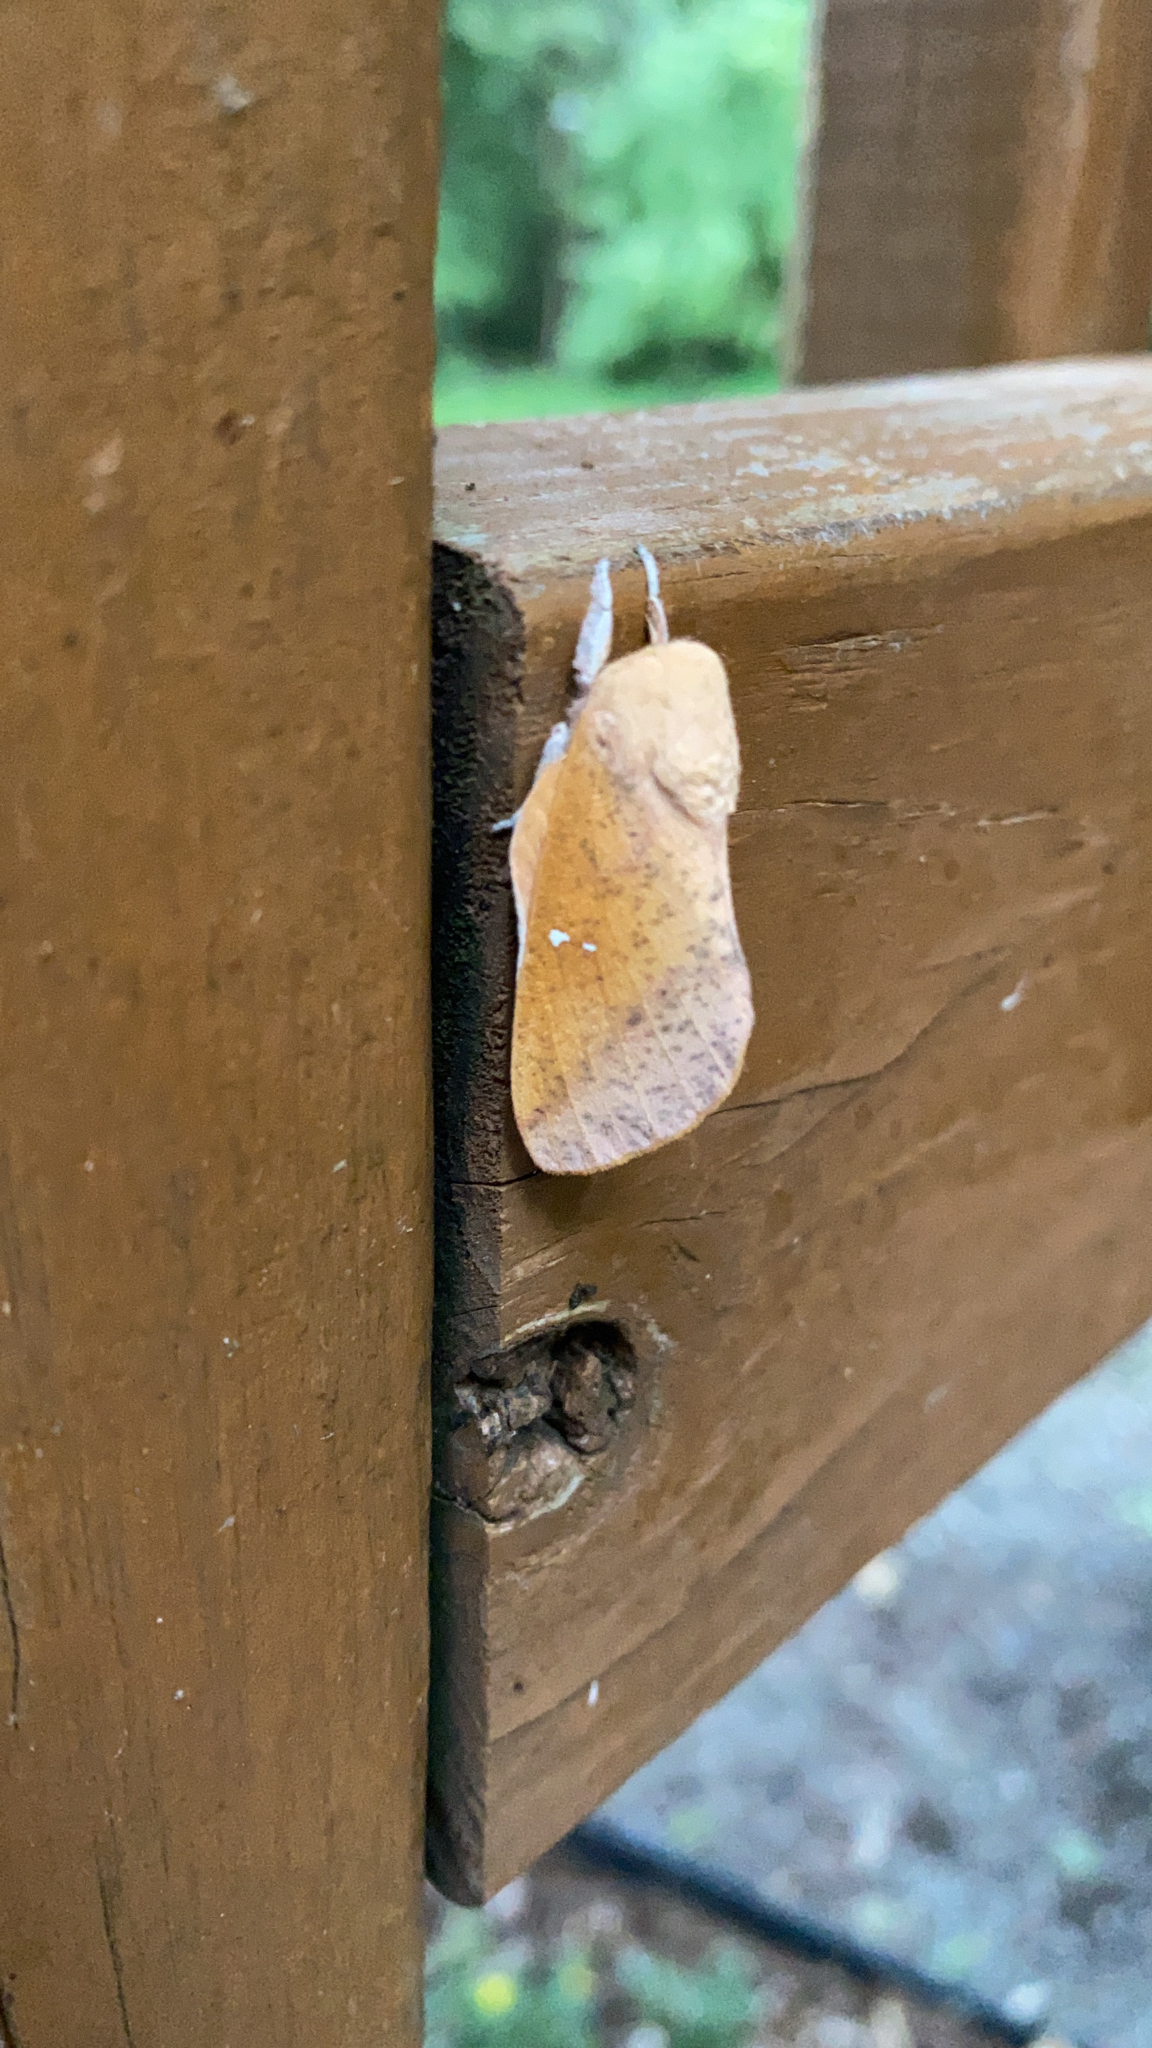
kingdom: Animalia
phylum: Arthropoda
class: Insecta
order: Lepidoptera
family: Saturniidae
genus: Syssphinx
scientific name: Syssphinx bicolor
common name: Honey locust moth
